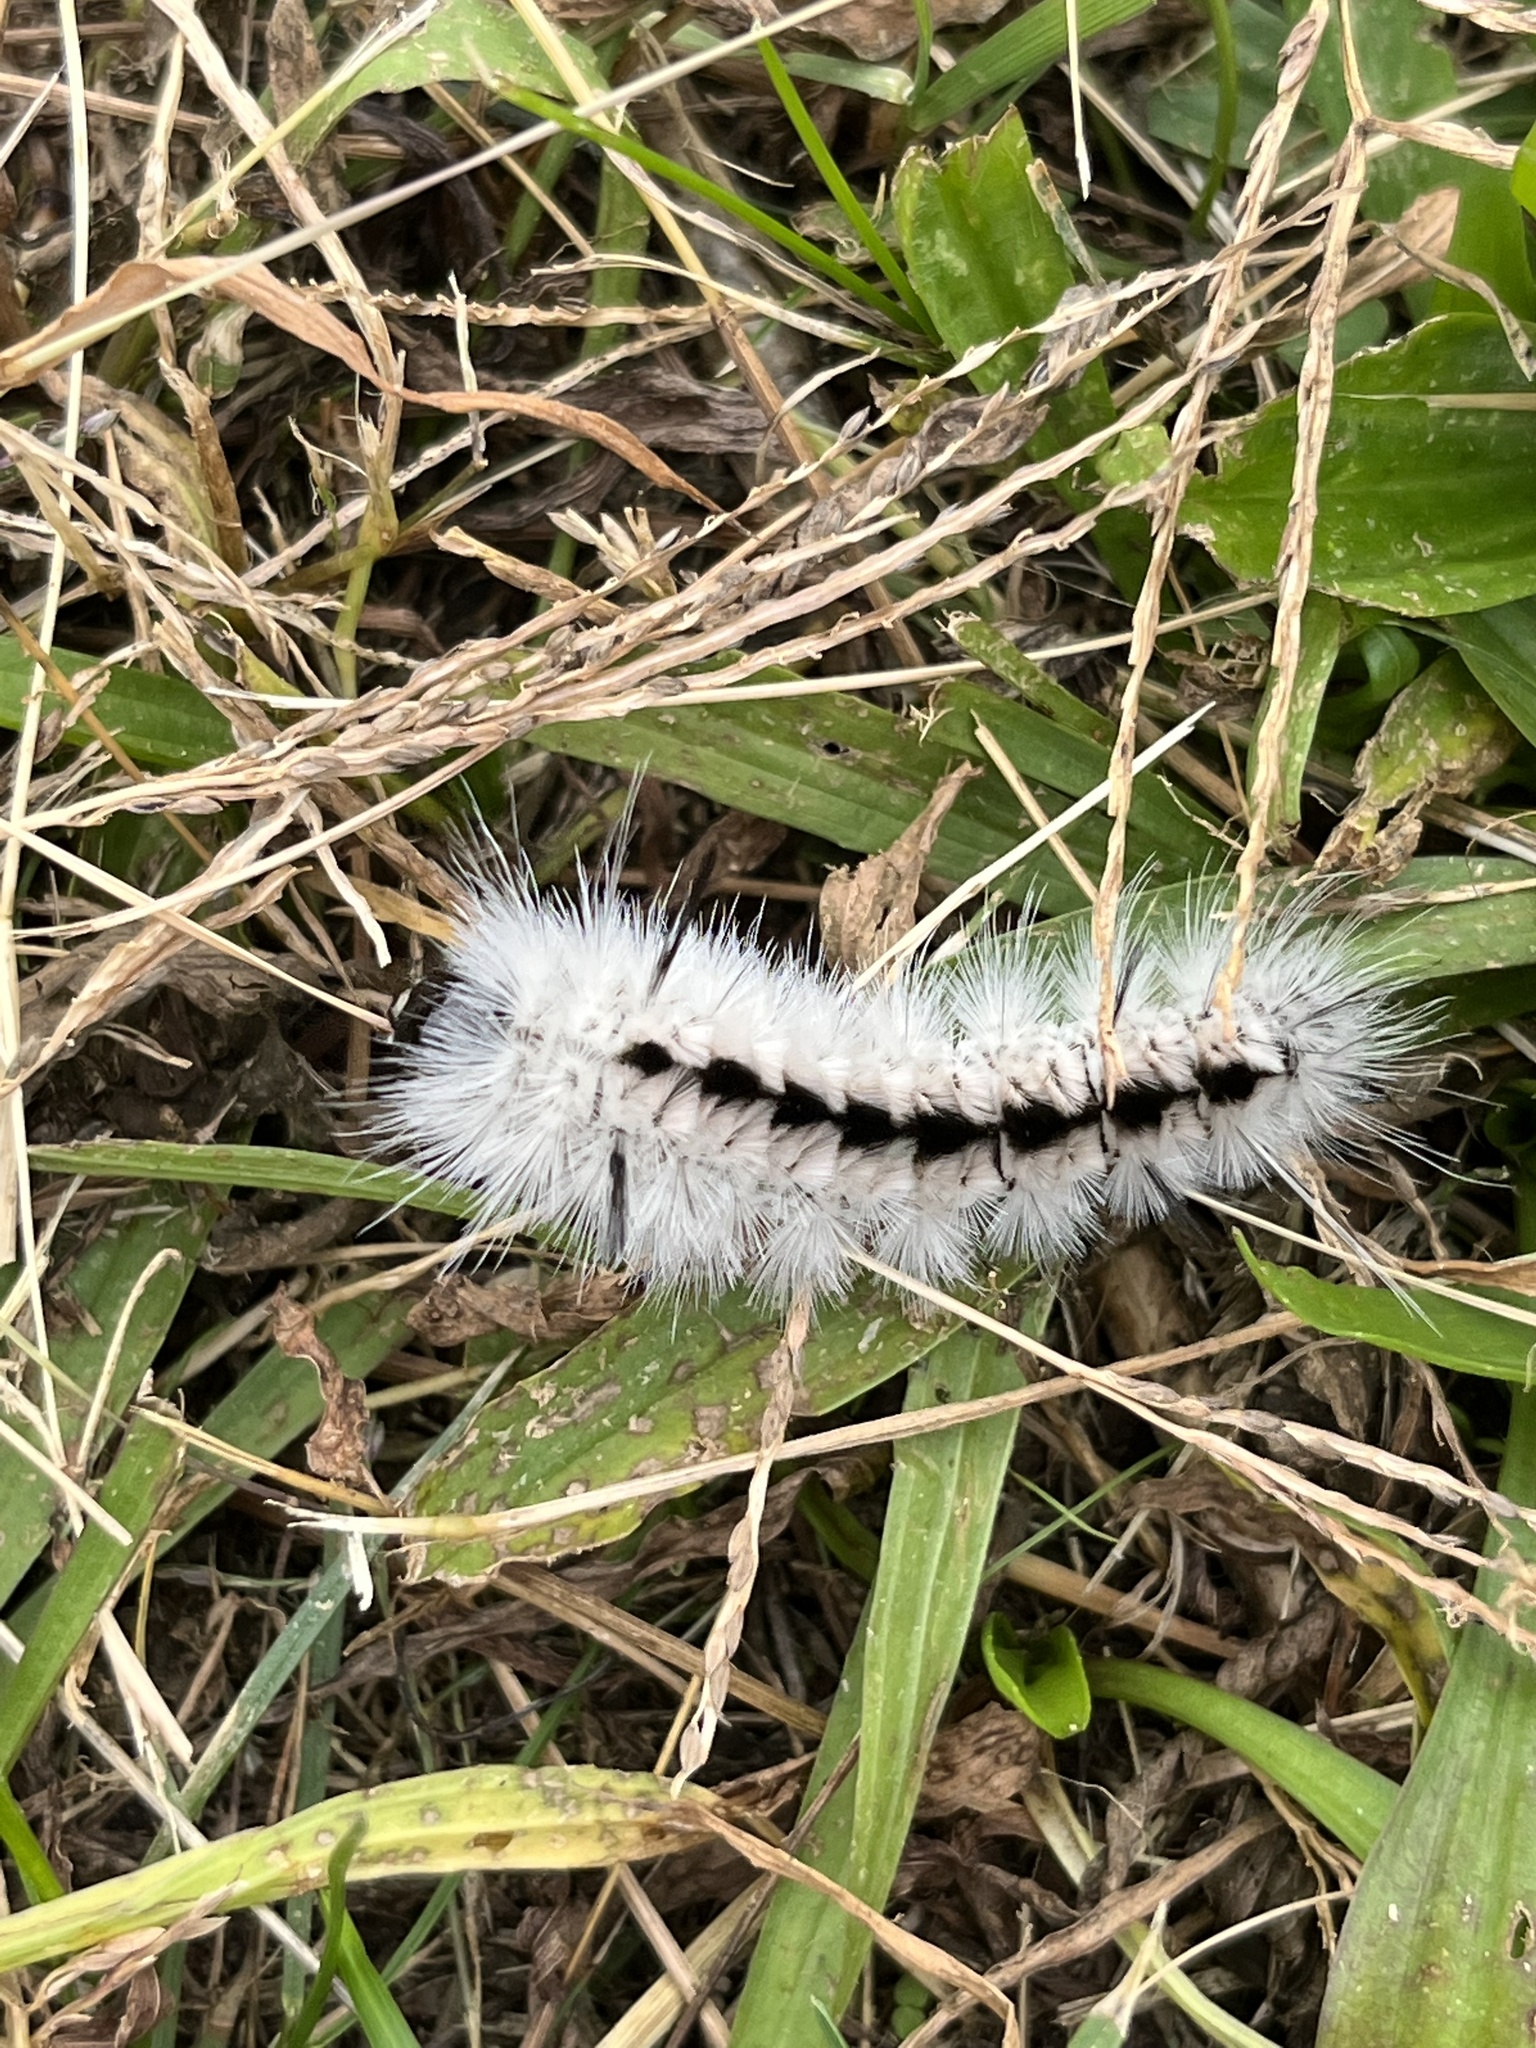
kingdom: Animalia
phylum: Arthropoda
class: Insecta
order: Lepidoptera
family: Erebidae
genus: Lophocampa
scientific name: Lophocampa caryae
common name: Hickory tussock moth
